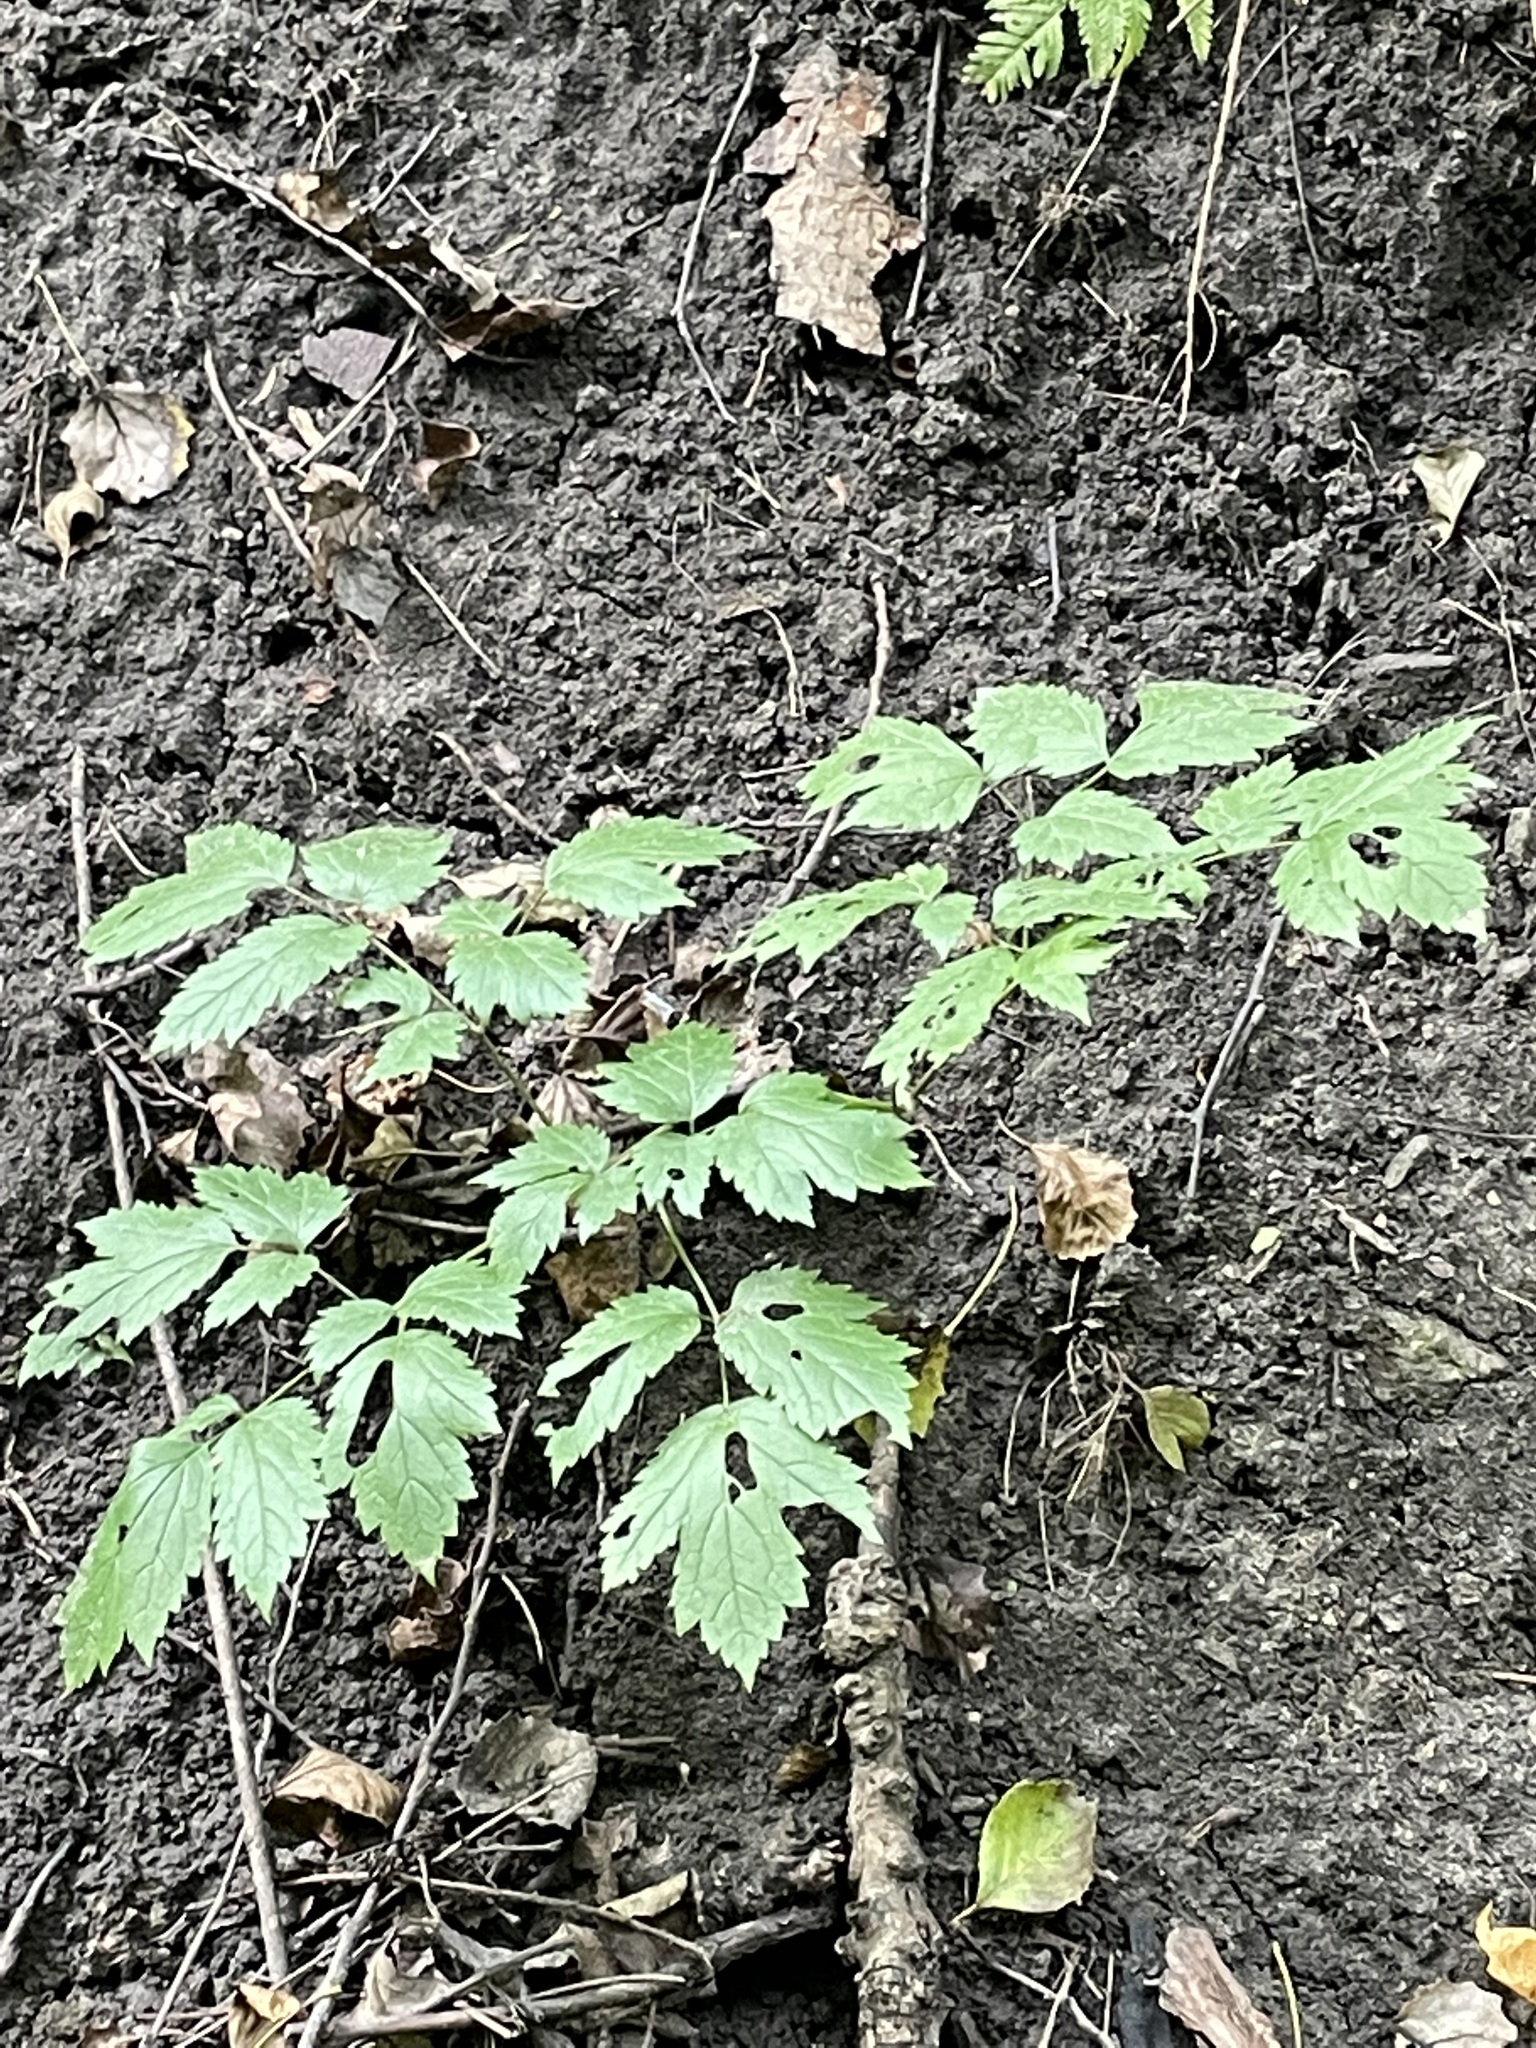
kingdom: Plantae
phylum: Tracheophyta
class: Magnoliopsida
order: Ranunculales
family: Ranunculaceae
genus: Actaea
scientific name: Actaea spicata
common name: Baneberry
